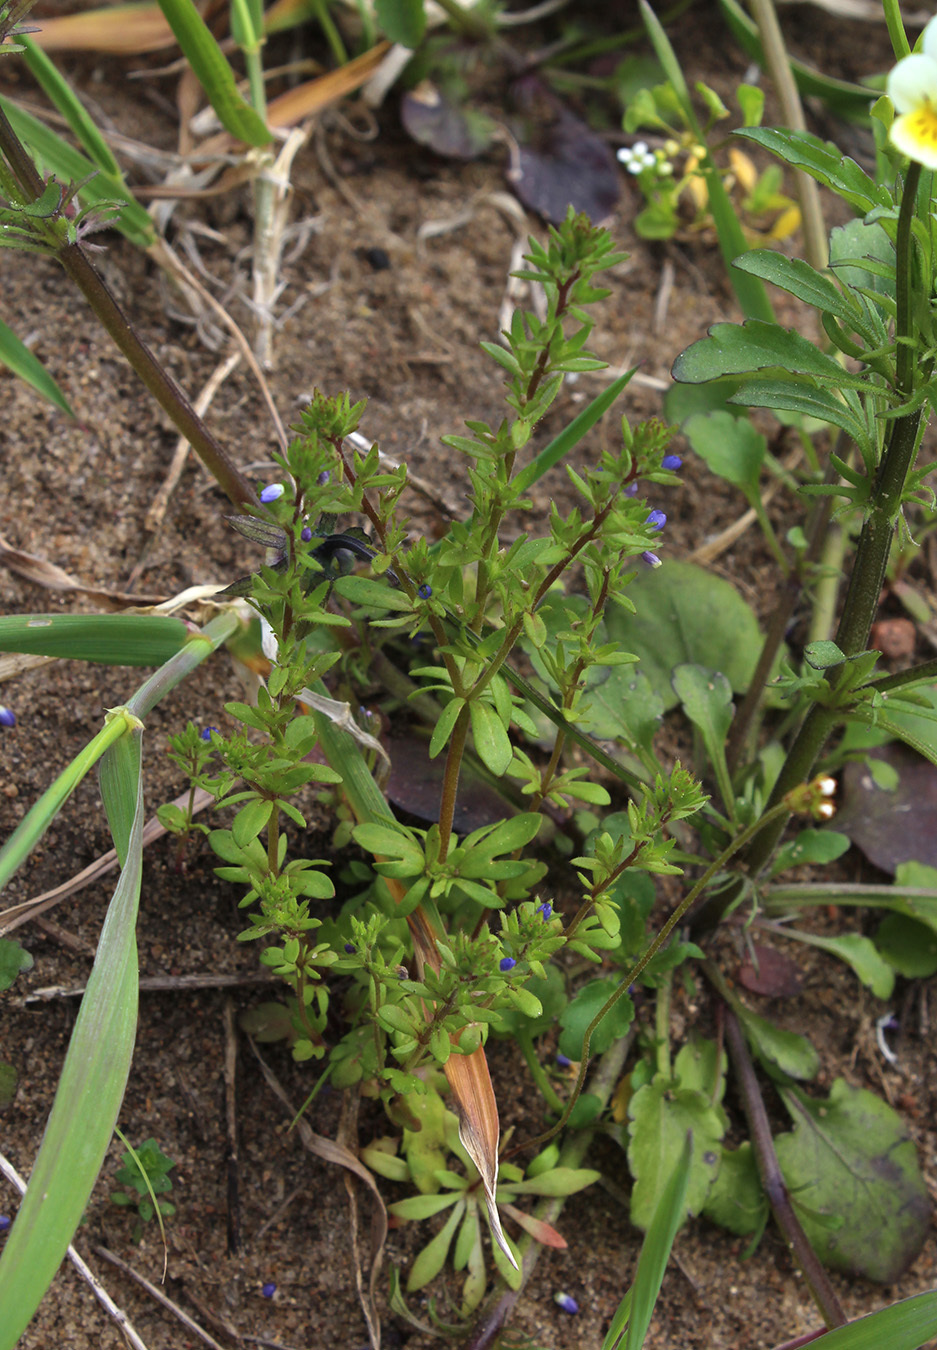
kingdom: Plantae
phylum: Tracheophyta
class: Magnoliopsida
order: Lamiales
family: Plantaginaceae
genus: Veronica
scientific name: Veronica verna
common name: Spring speedwell
